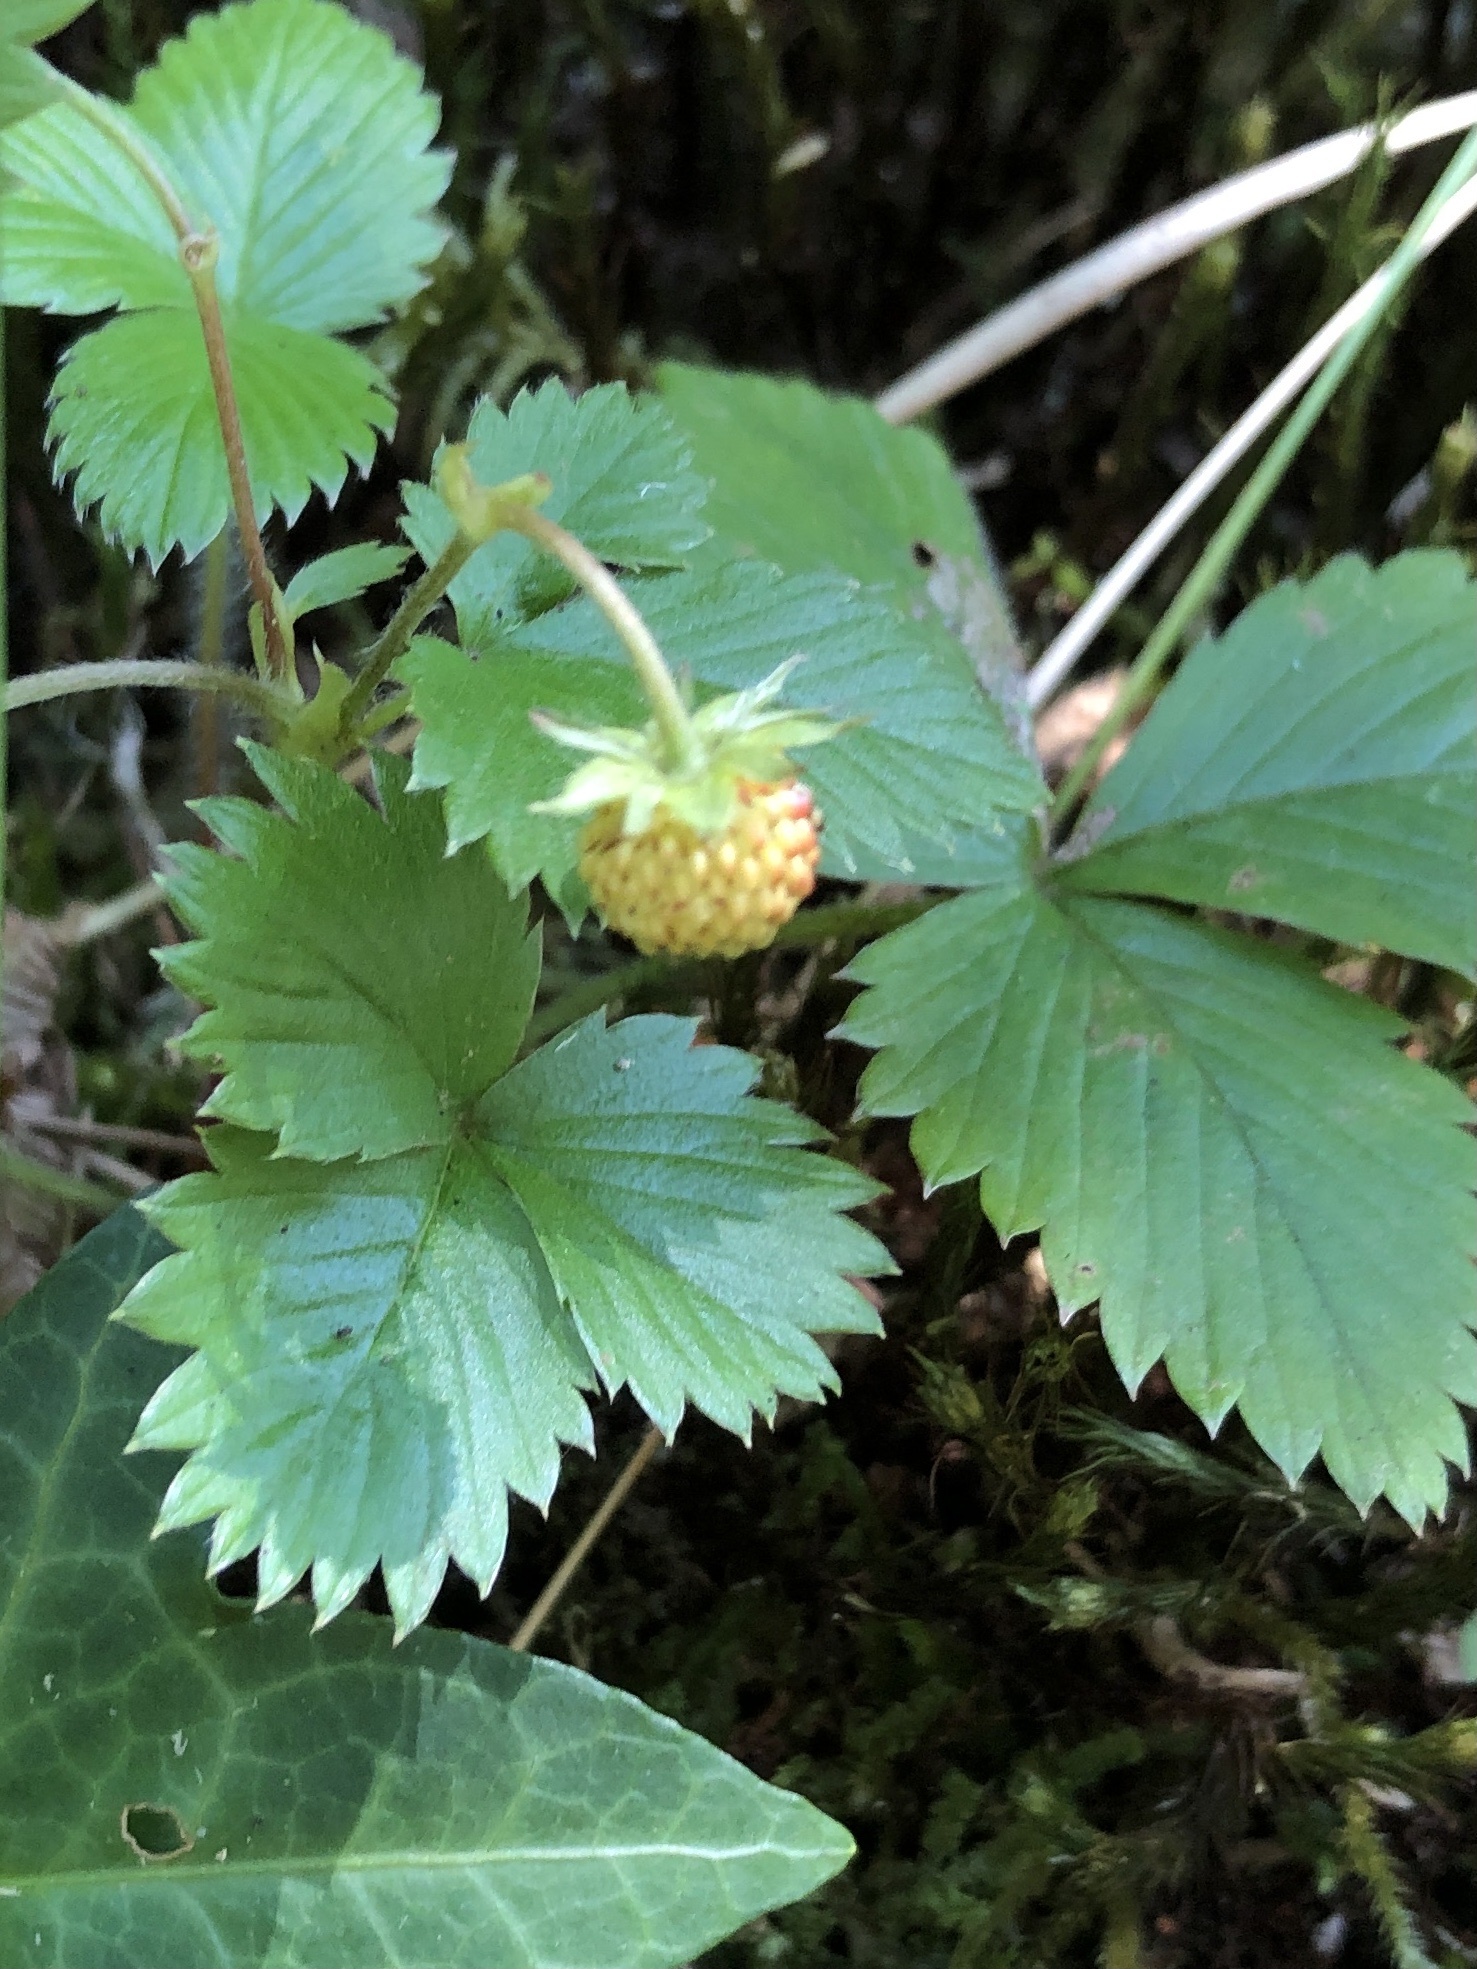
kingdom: Plantae
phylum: Tracheophyta
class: Magnoliopsida
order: Rosales
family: Rosaceae
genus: Fragaria
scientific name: Fragaria vesca
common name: Wild strawberry
